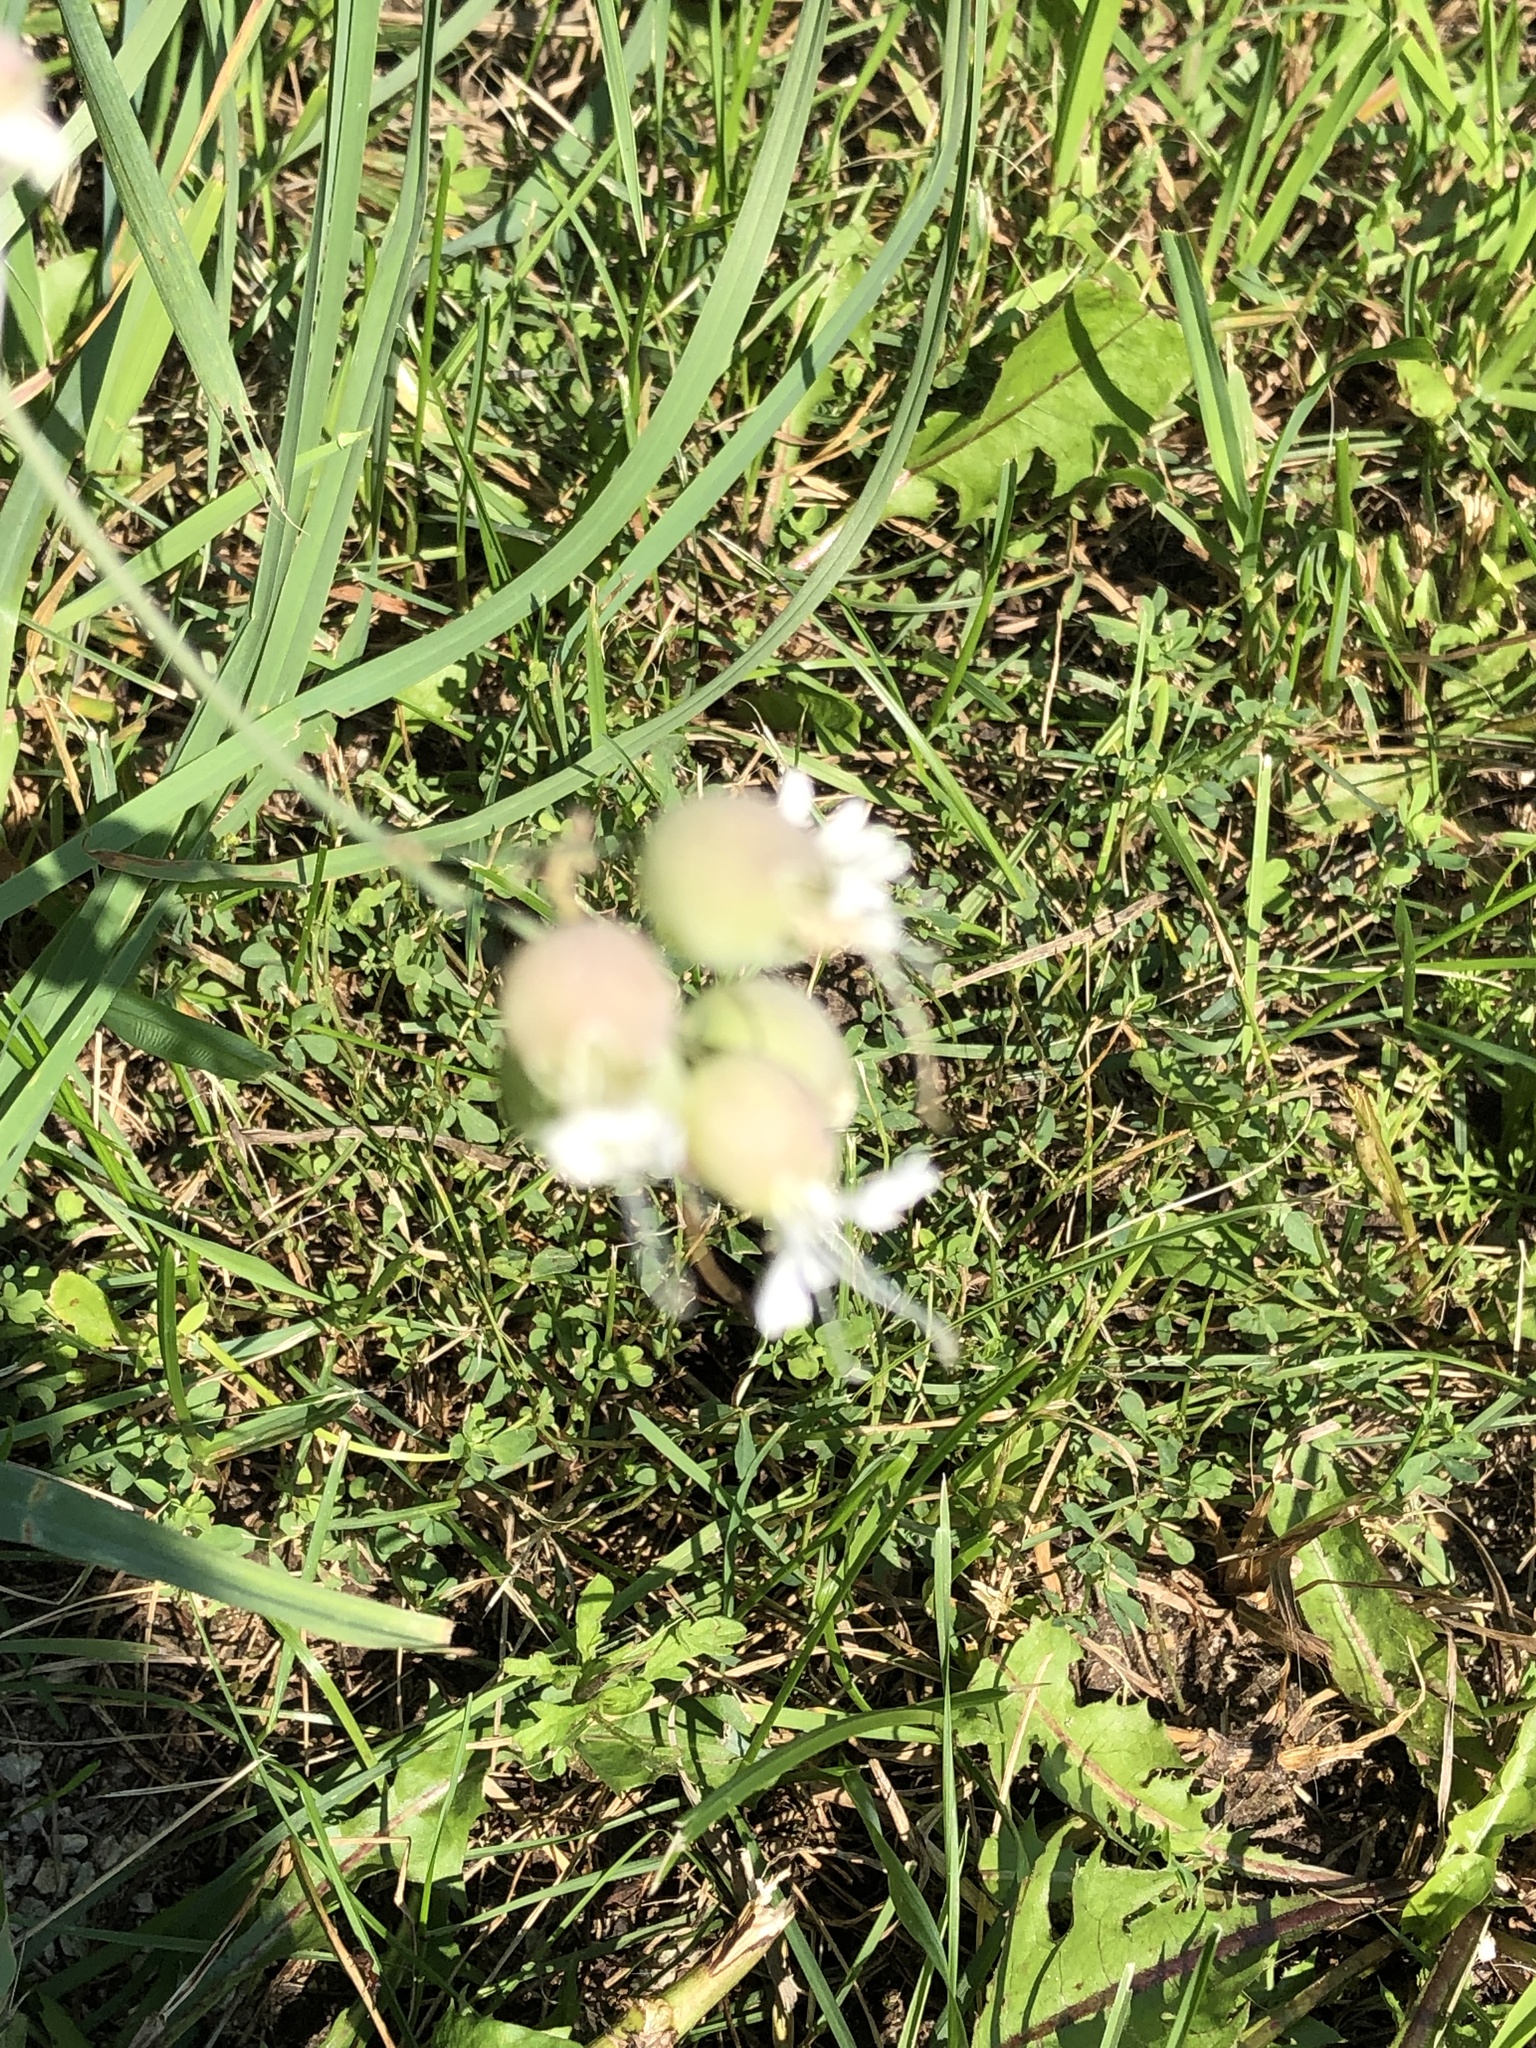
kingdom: Plantae
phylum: Tracheophyta
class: Magnoliopsida
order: Caryophyllales
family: Caryophyllaceae
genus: Silene
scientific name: Silene vulgaris
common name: Bladder campion
